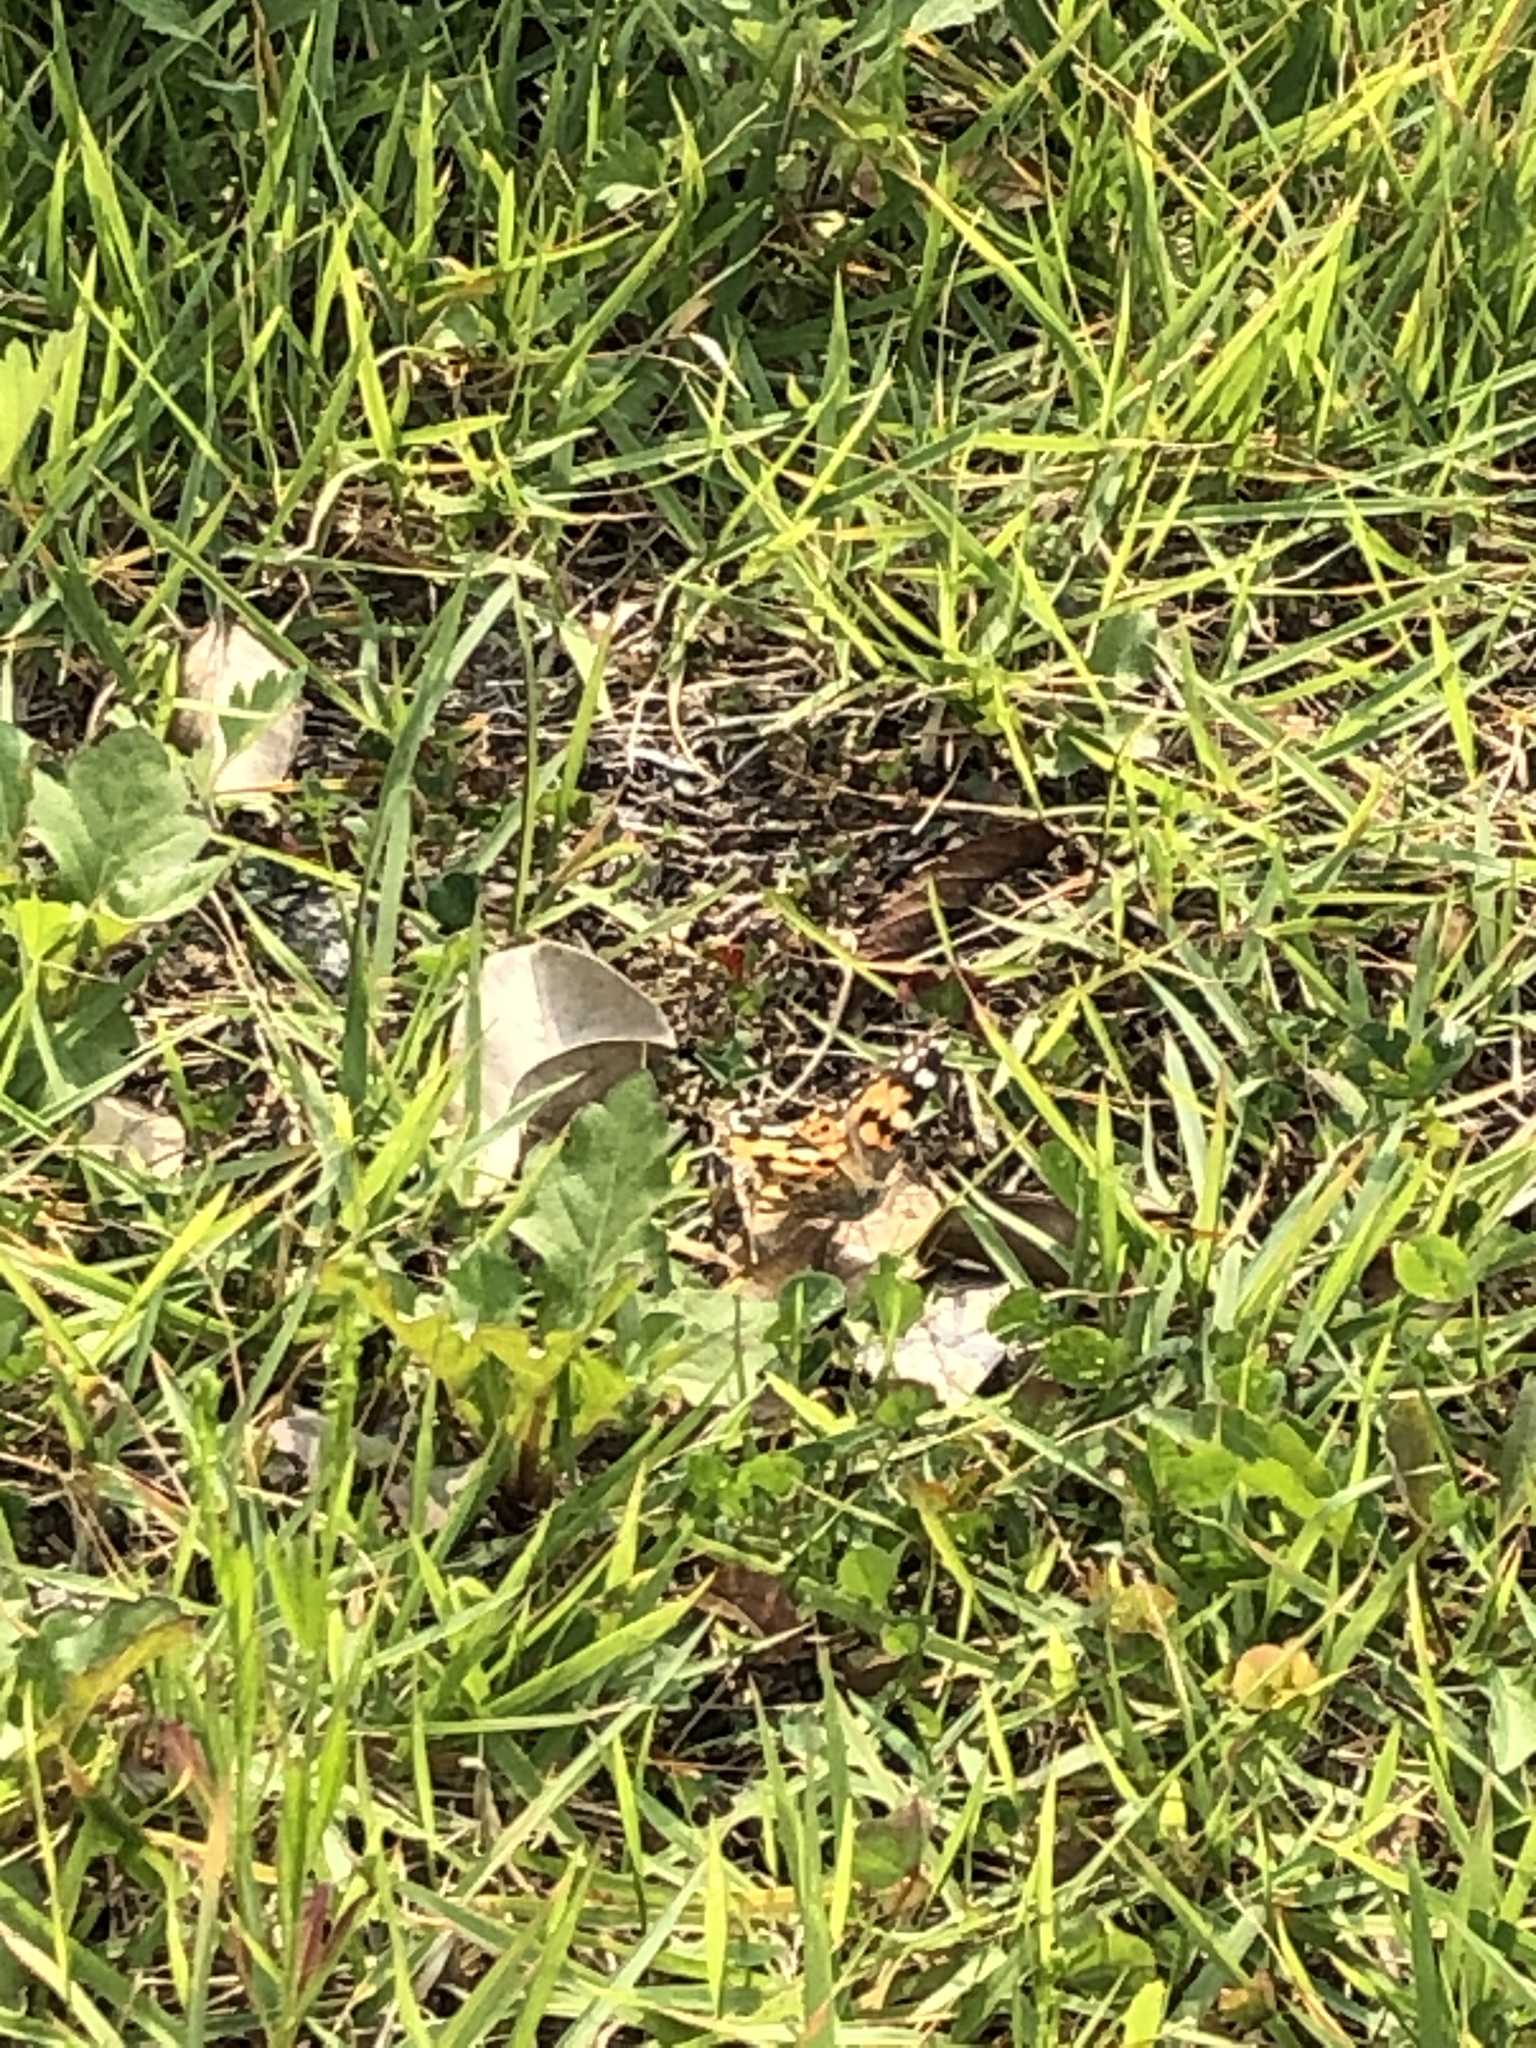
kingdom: Animalia
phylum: Arthropoda
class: Insecta
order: Lepidoptera
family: Nymphalidae
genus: Vanessa
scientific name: Vanessa cardui
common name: Painted lady
